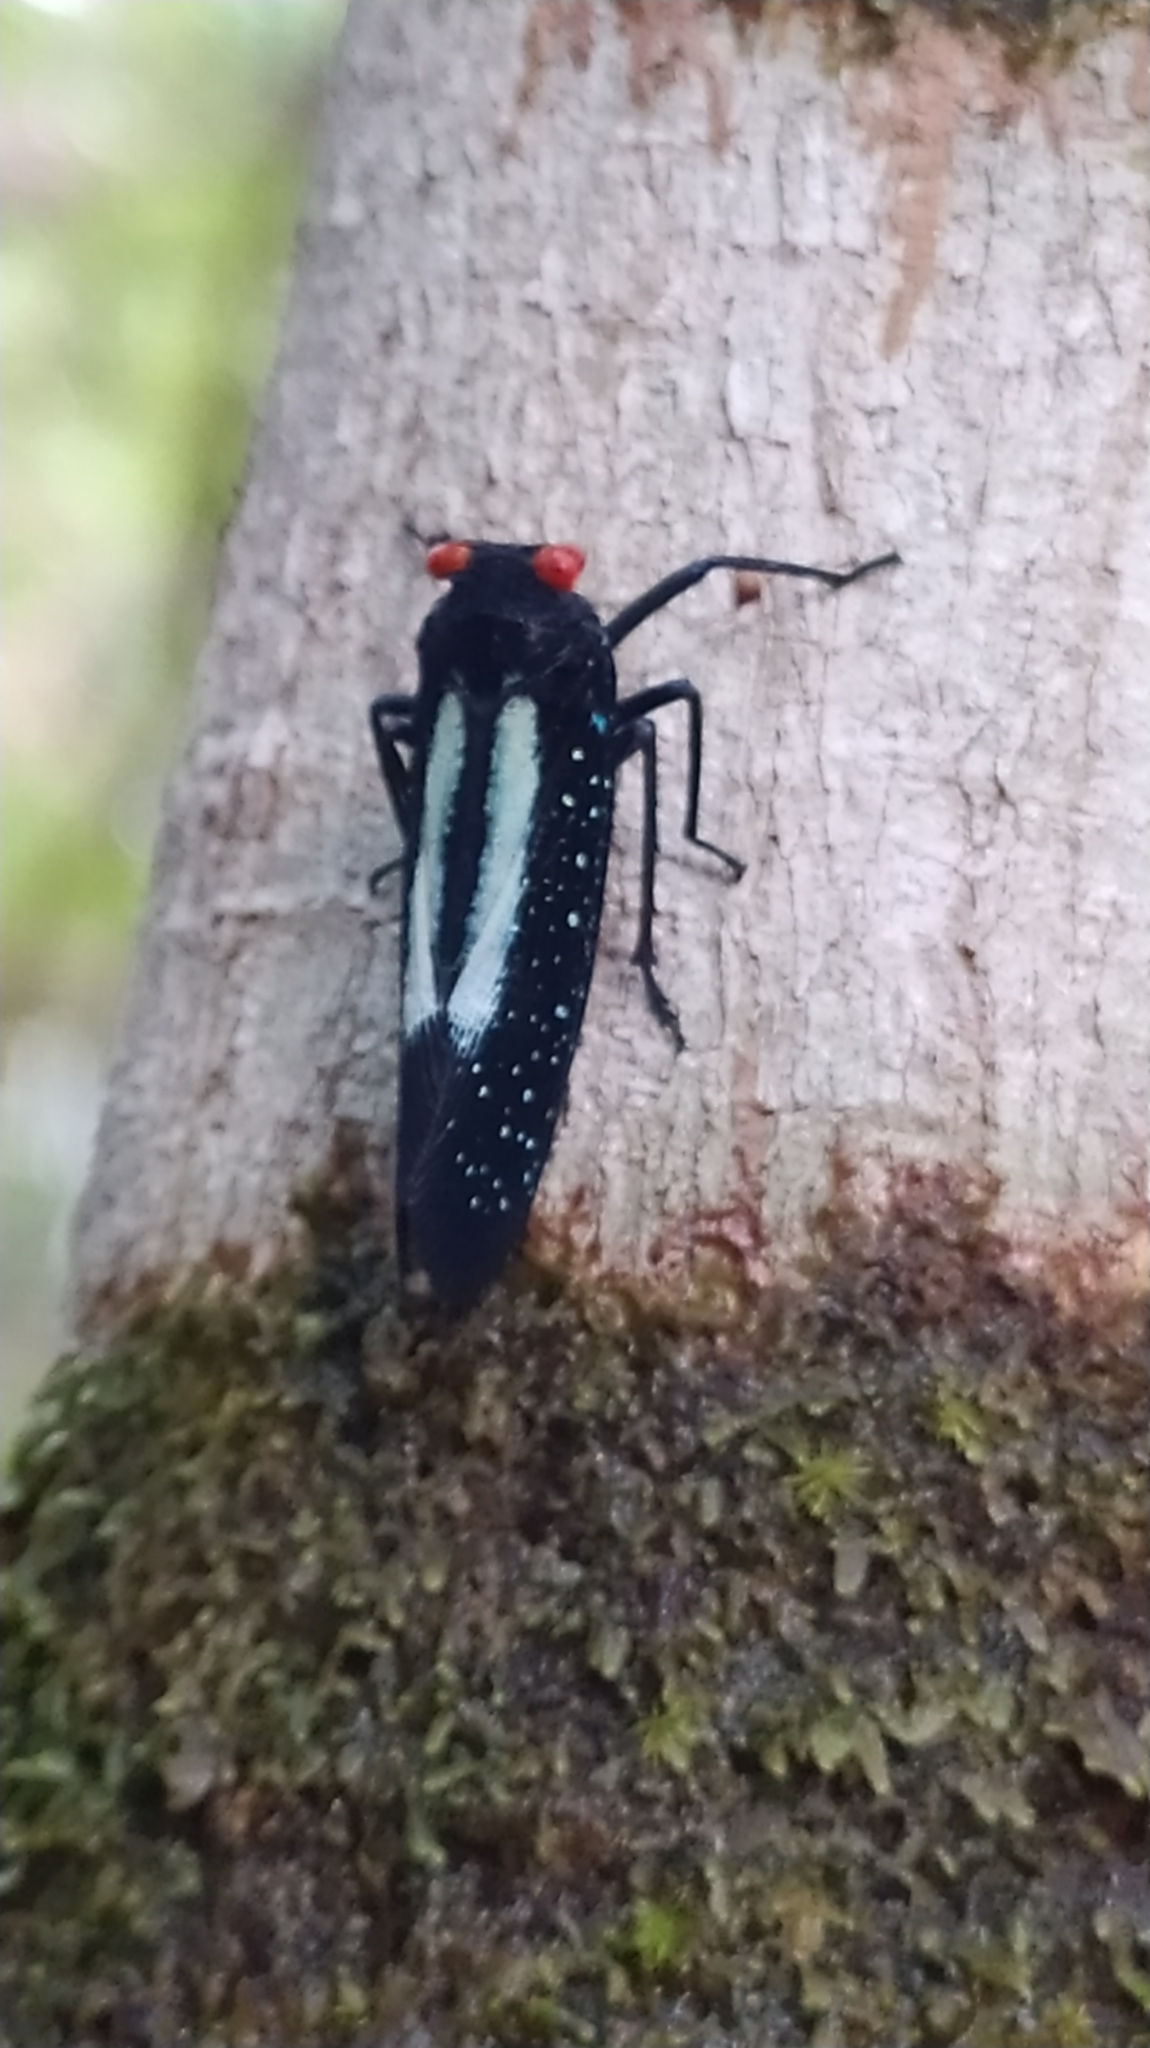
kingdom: Animalia
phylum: Arthropoda
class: Insecta
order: Hemiptera
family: Fulgoridae
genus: Lystra
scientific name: Lystra lanata
